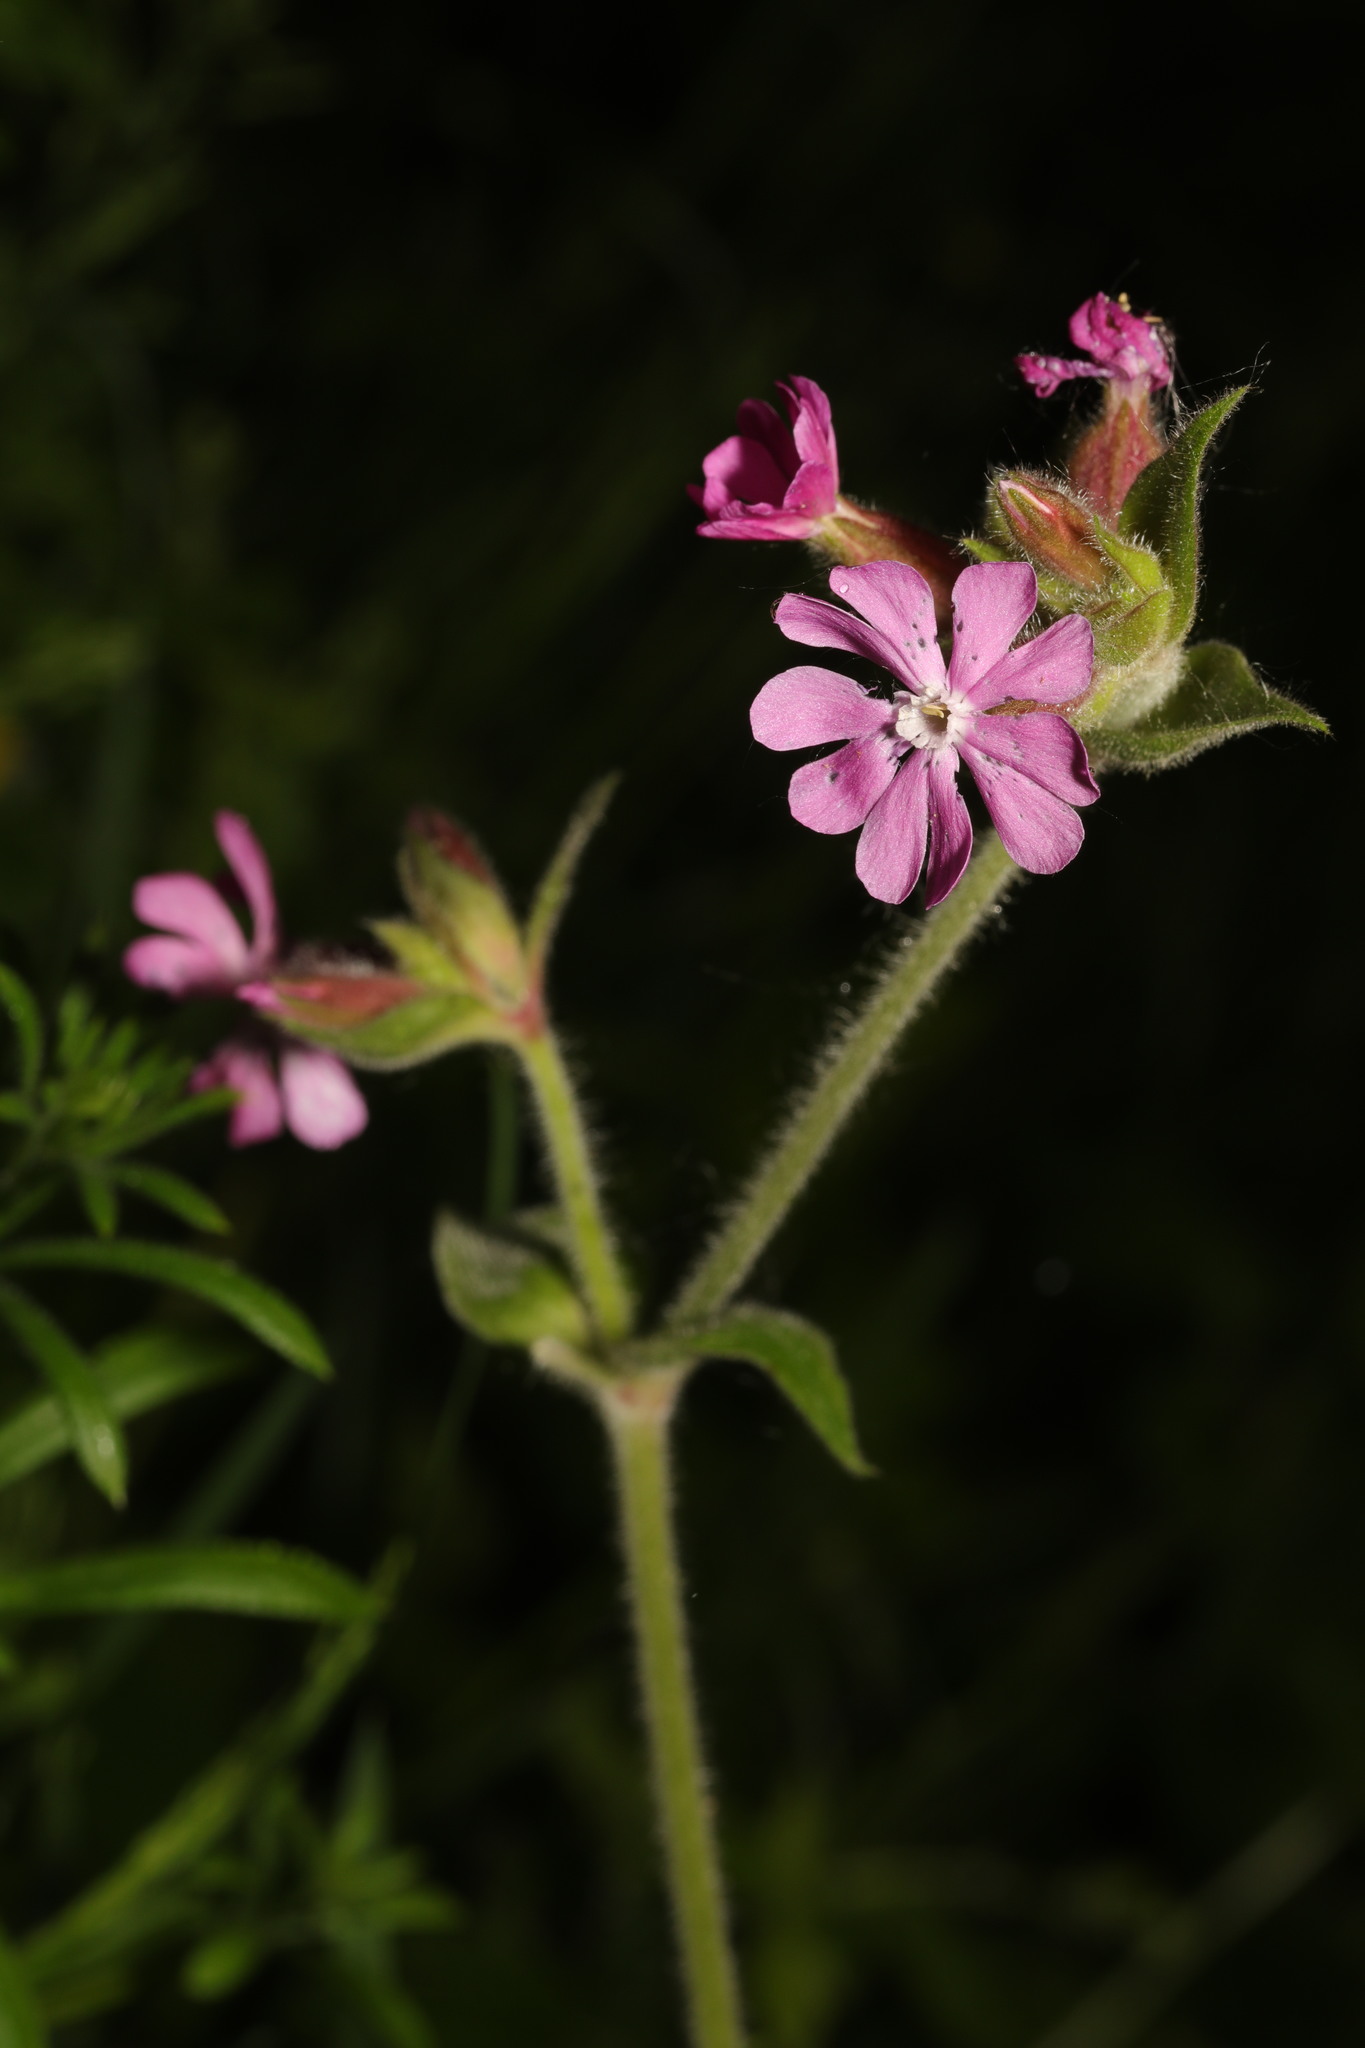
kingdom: Plantae
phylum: Tracheophyta
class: Magnoliopsida
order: Caryophyllales
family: Caryophyllaceae
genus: Silene
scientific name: Silene dioica
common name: Red campion
